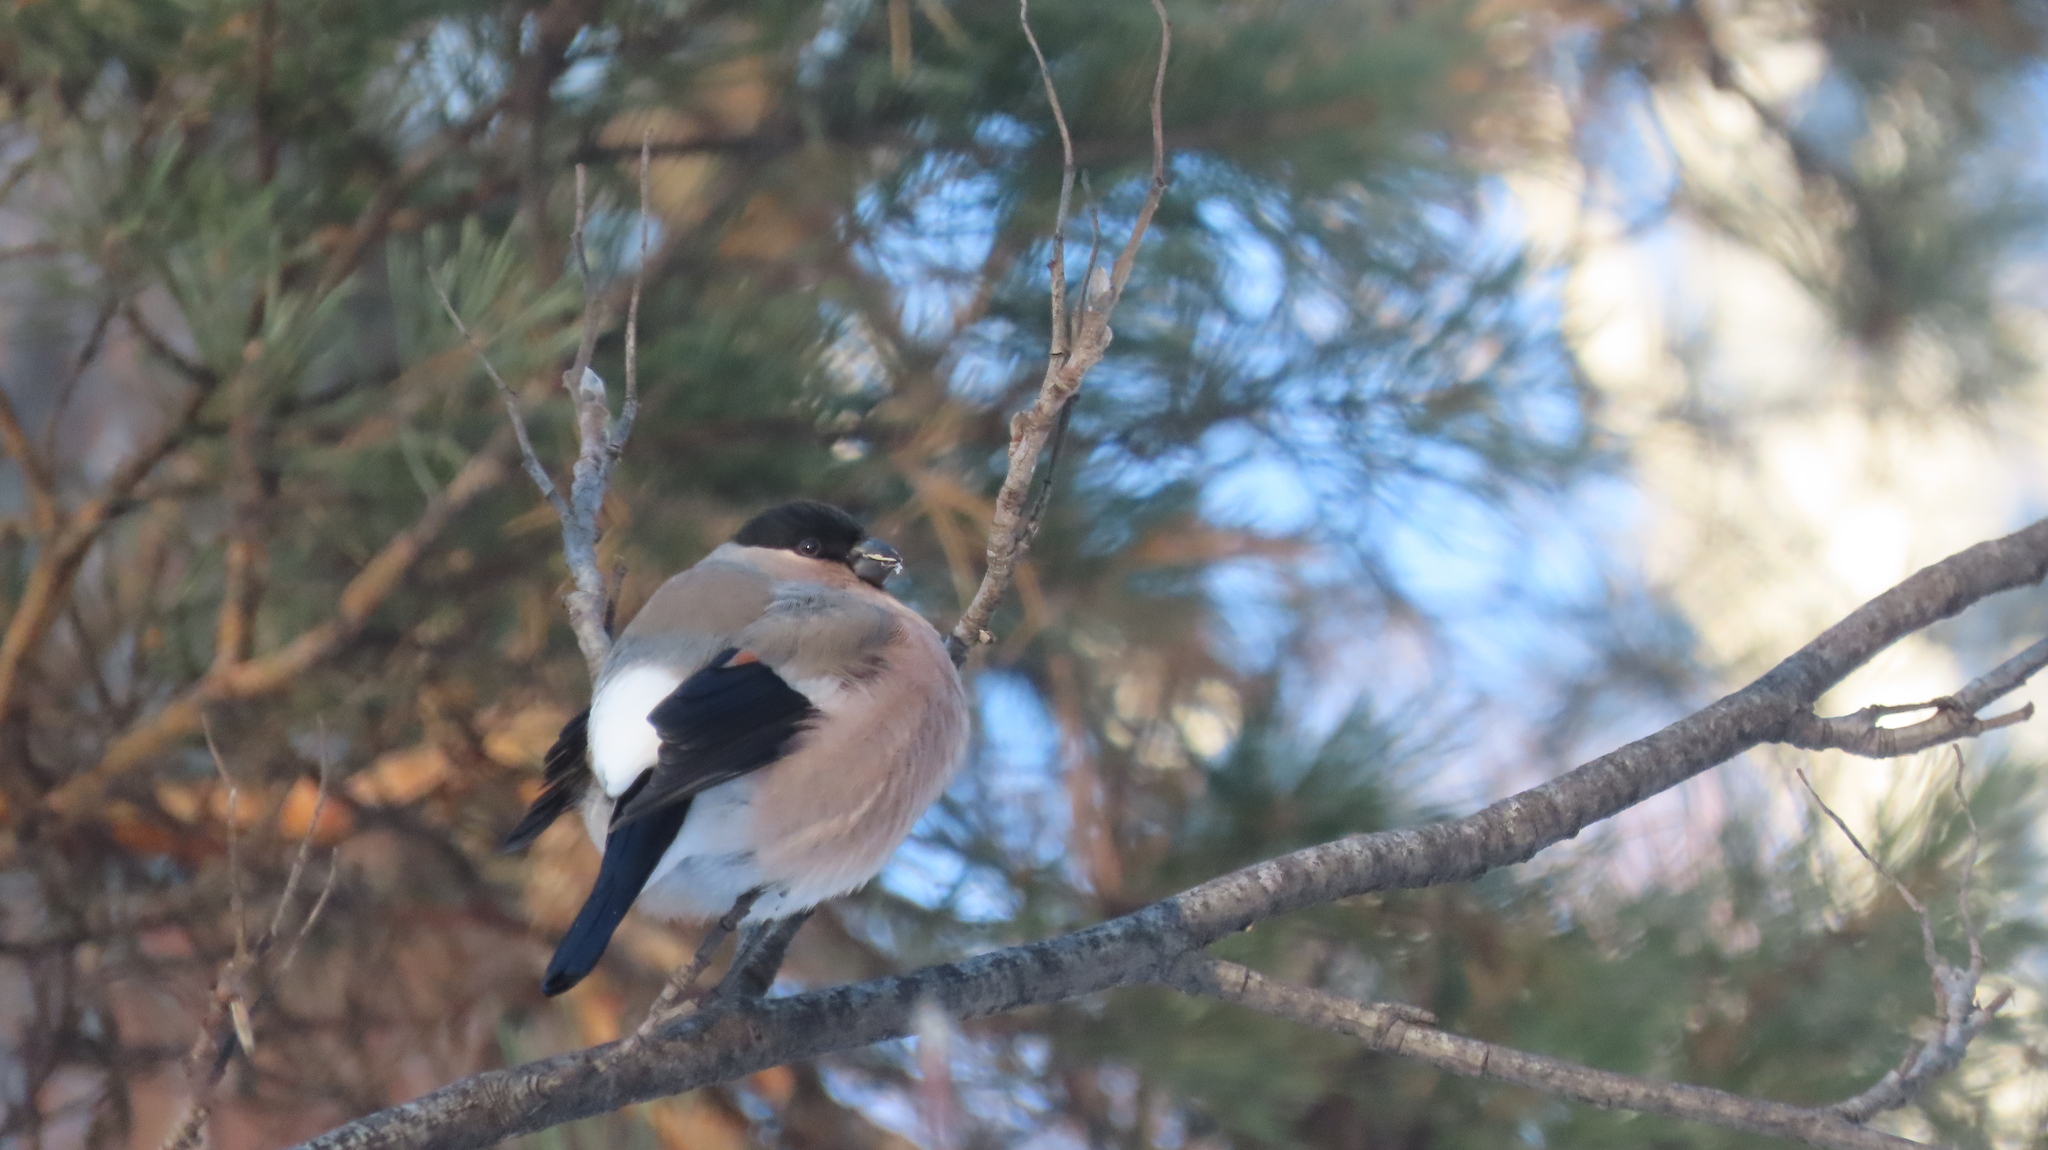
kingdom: Animalia
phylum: Chordata
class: Aves
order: Passeriformes
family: Fringillidae
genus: Pyrrhula
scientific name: Pyrrhula pyrrhula
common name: Eurasian bullfinch
